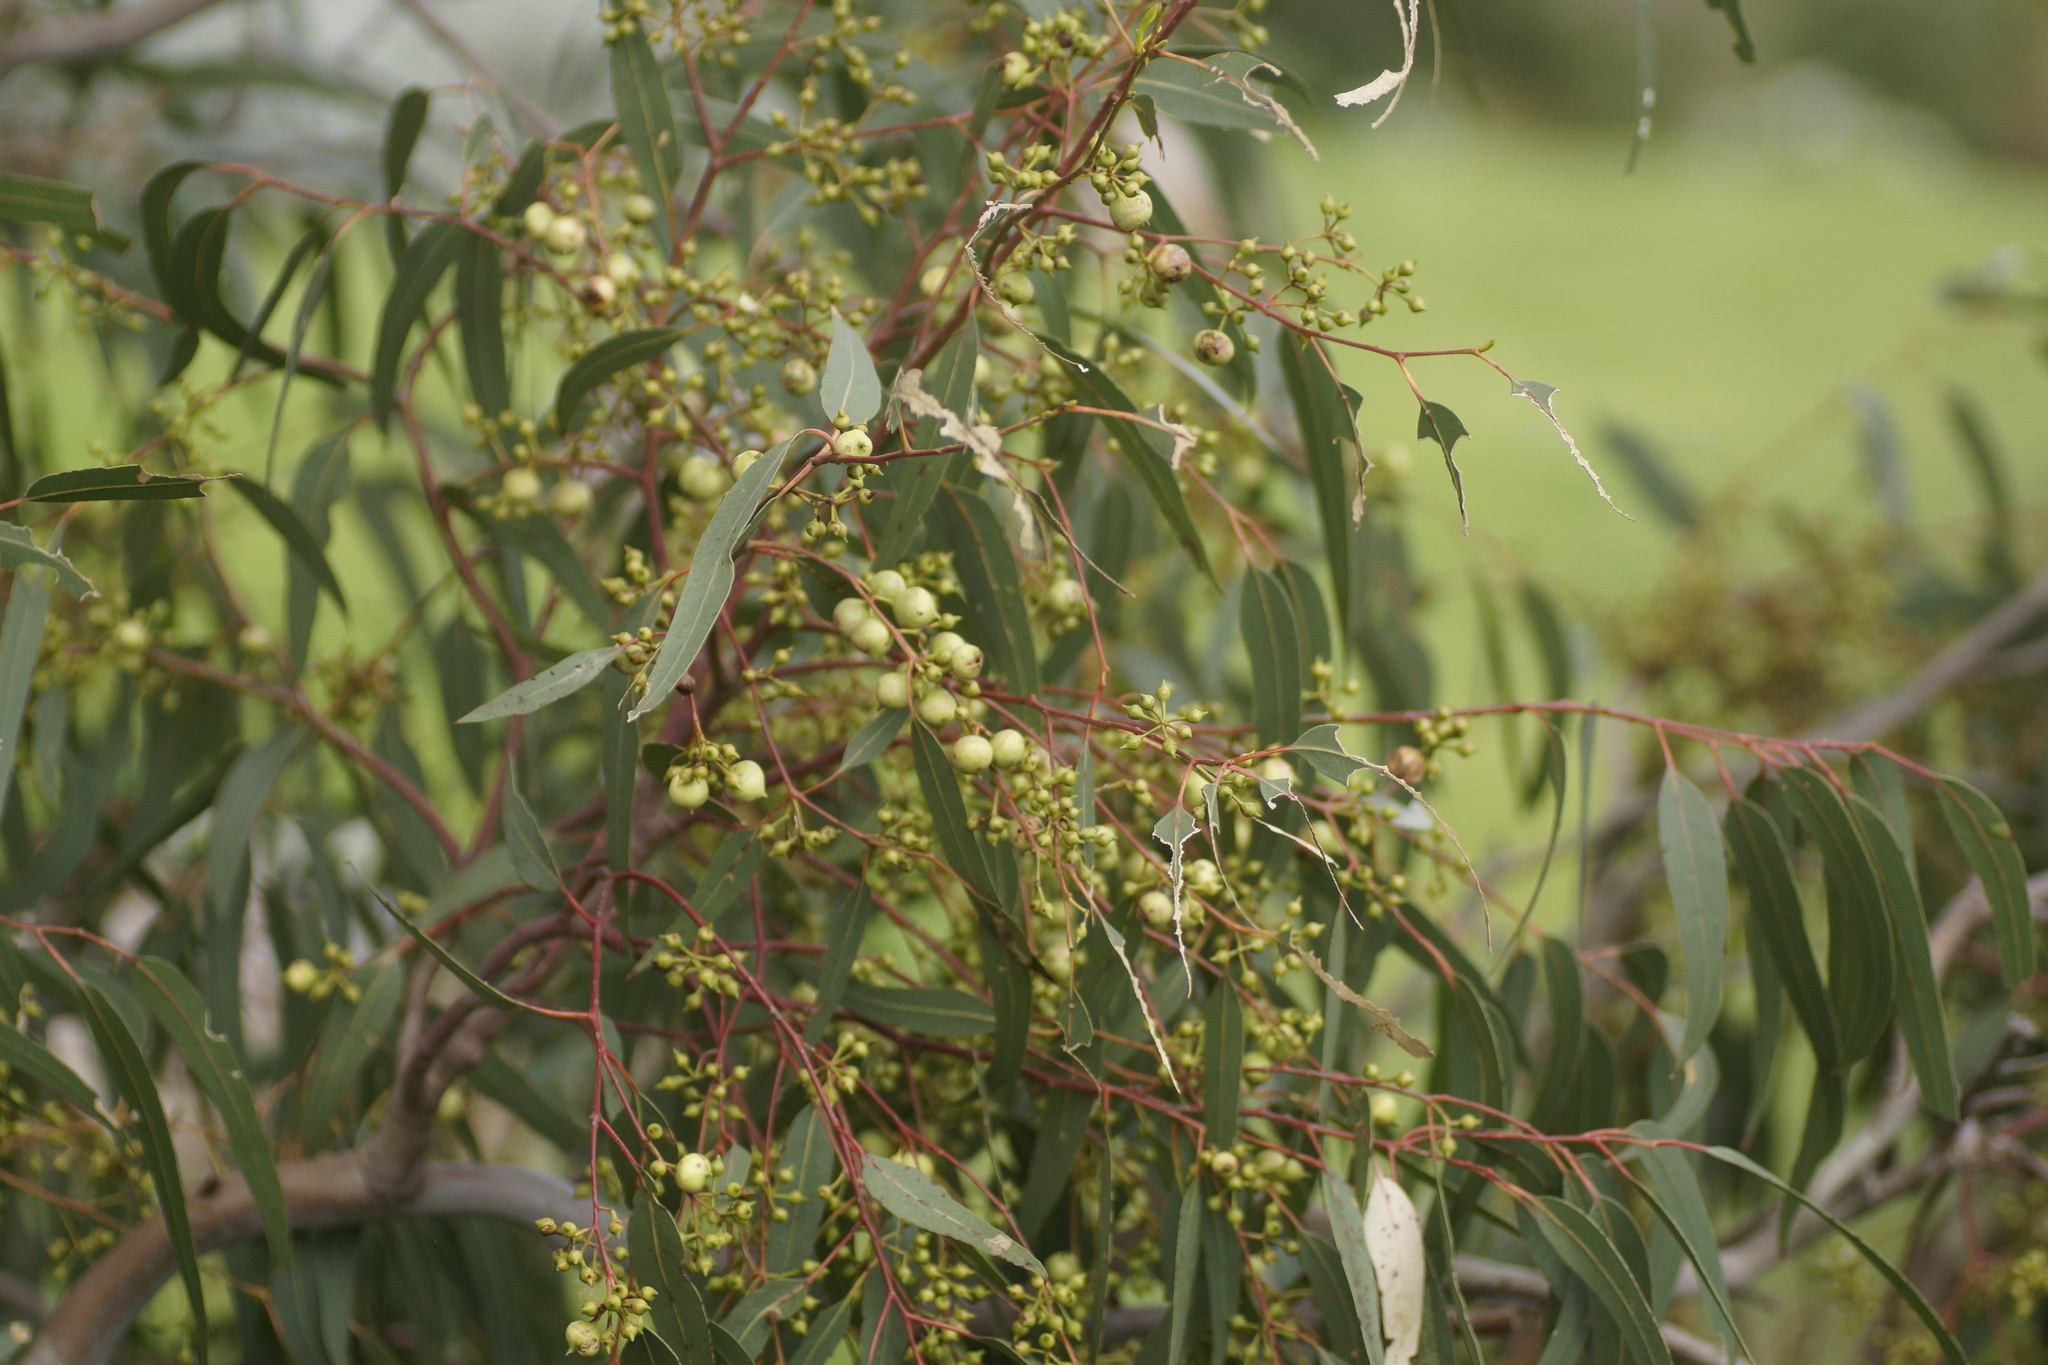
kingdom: Plantae
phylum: Tracheophyta
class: Magnoliopsida
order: Myrtales
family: Myrtaceae
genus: Eucalyptus
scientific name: Eucalyptus camaldulensis
